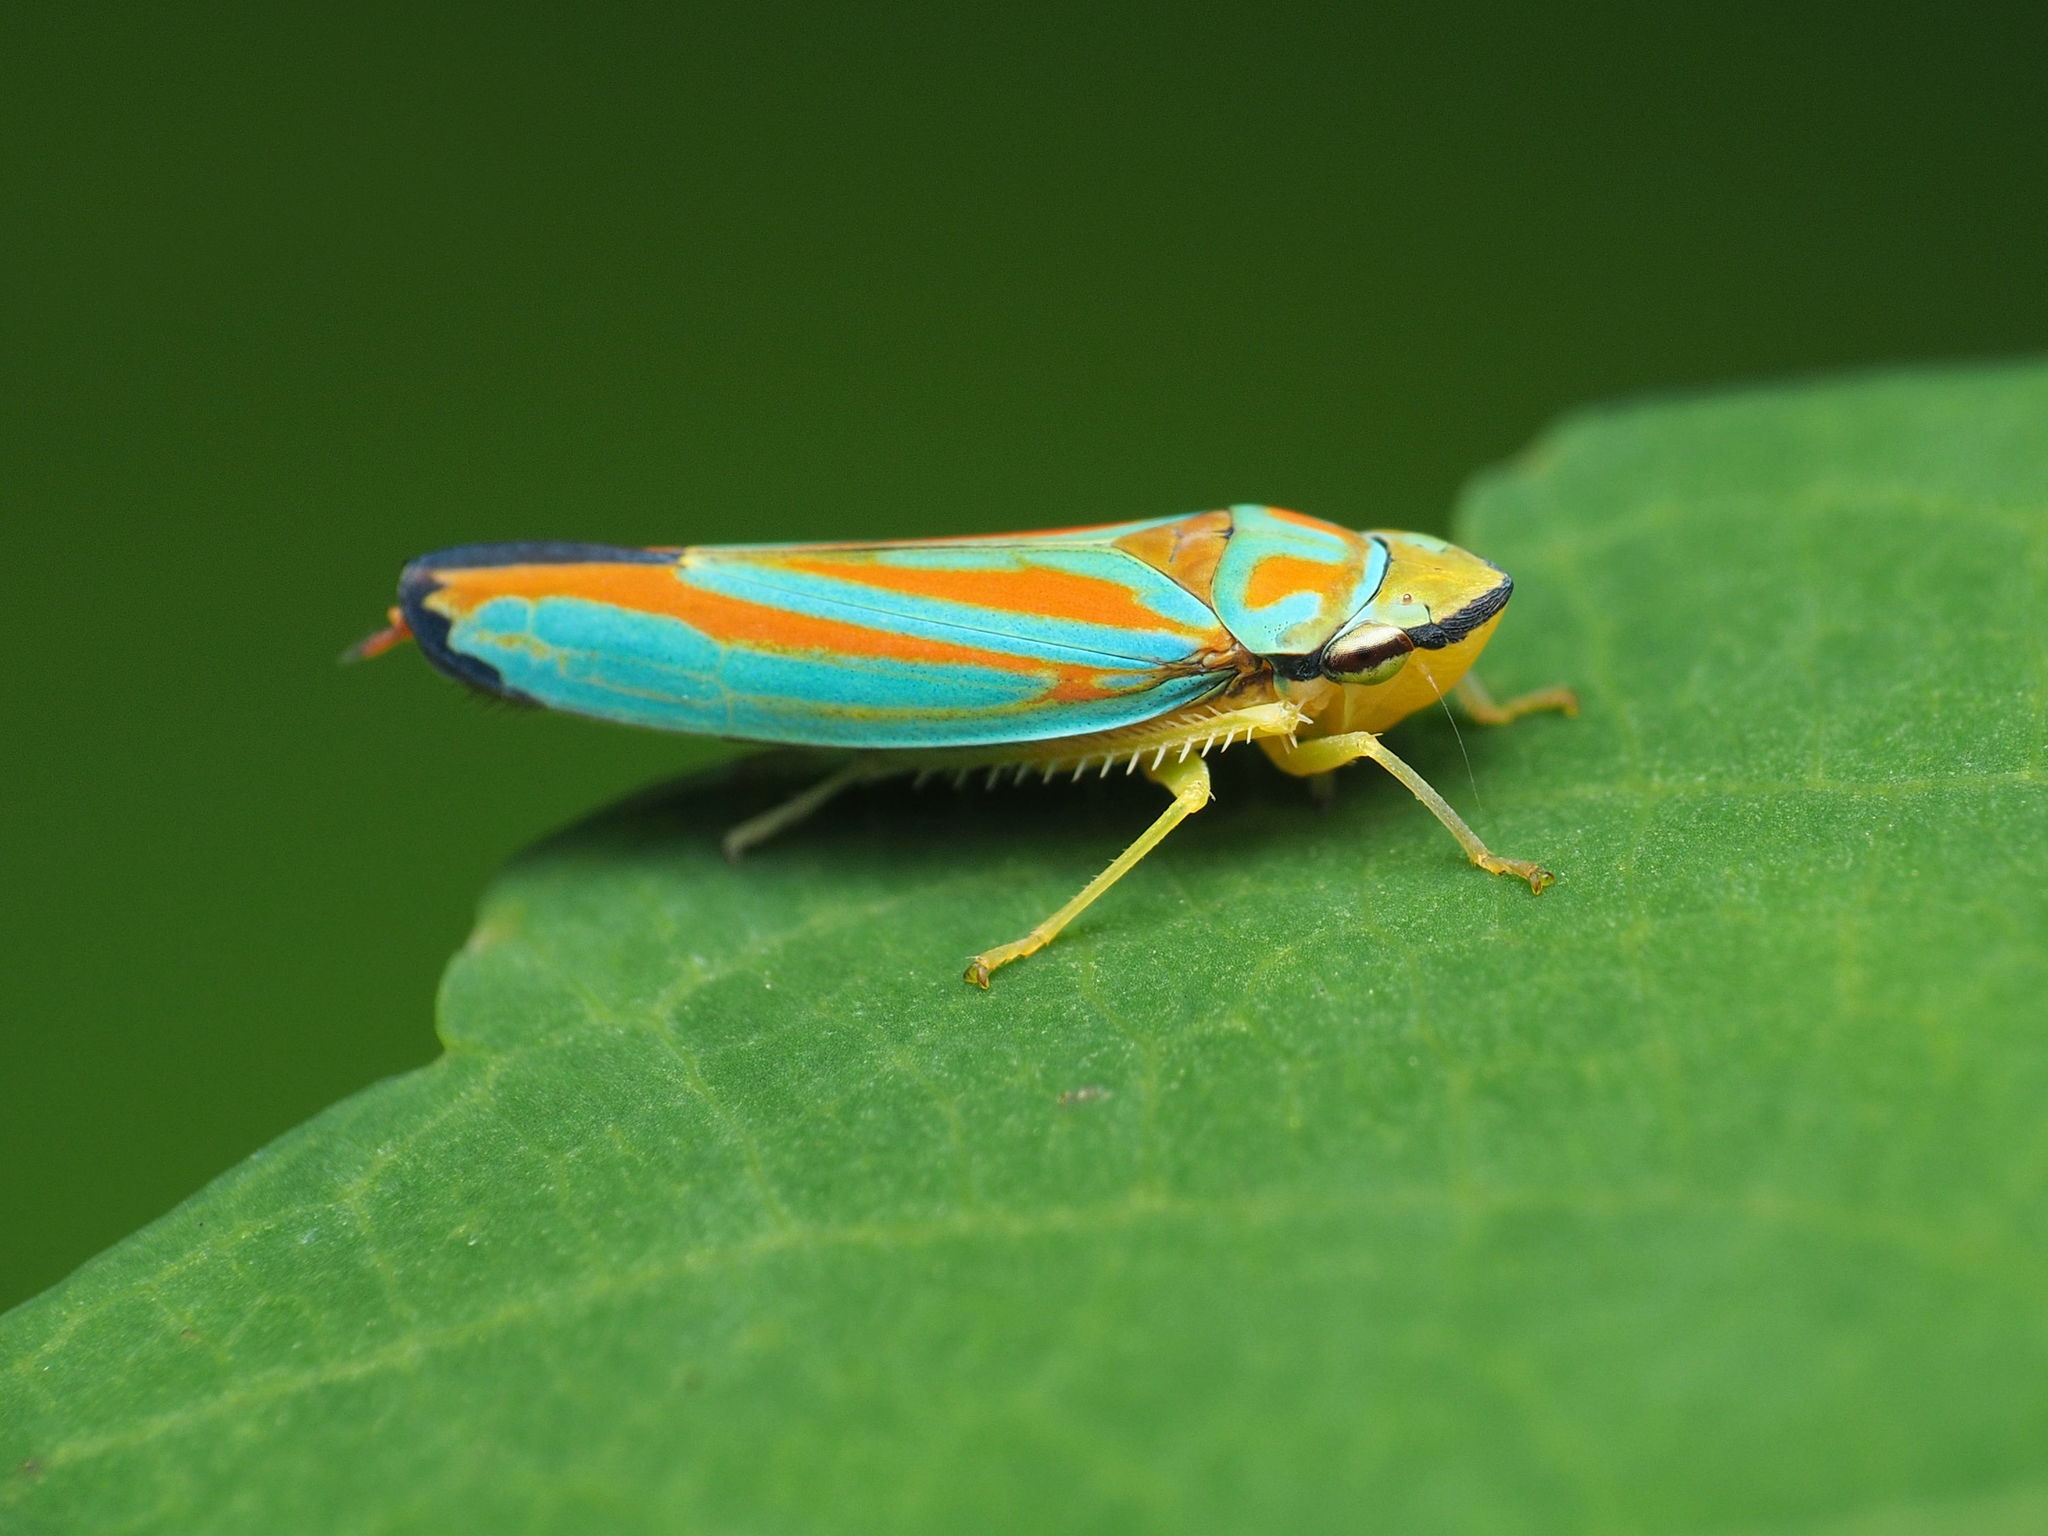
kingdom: Animalia
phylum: Arthropoda
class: Insecta
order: Hemiptera
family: Cicadellidae
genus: Graphocephala
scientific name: Graphocephala coccinea
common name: Candy-striped leafhopper
